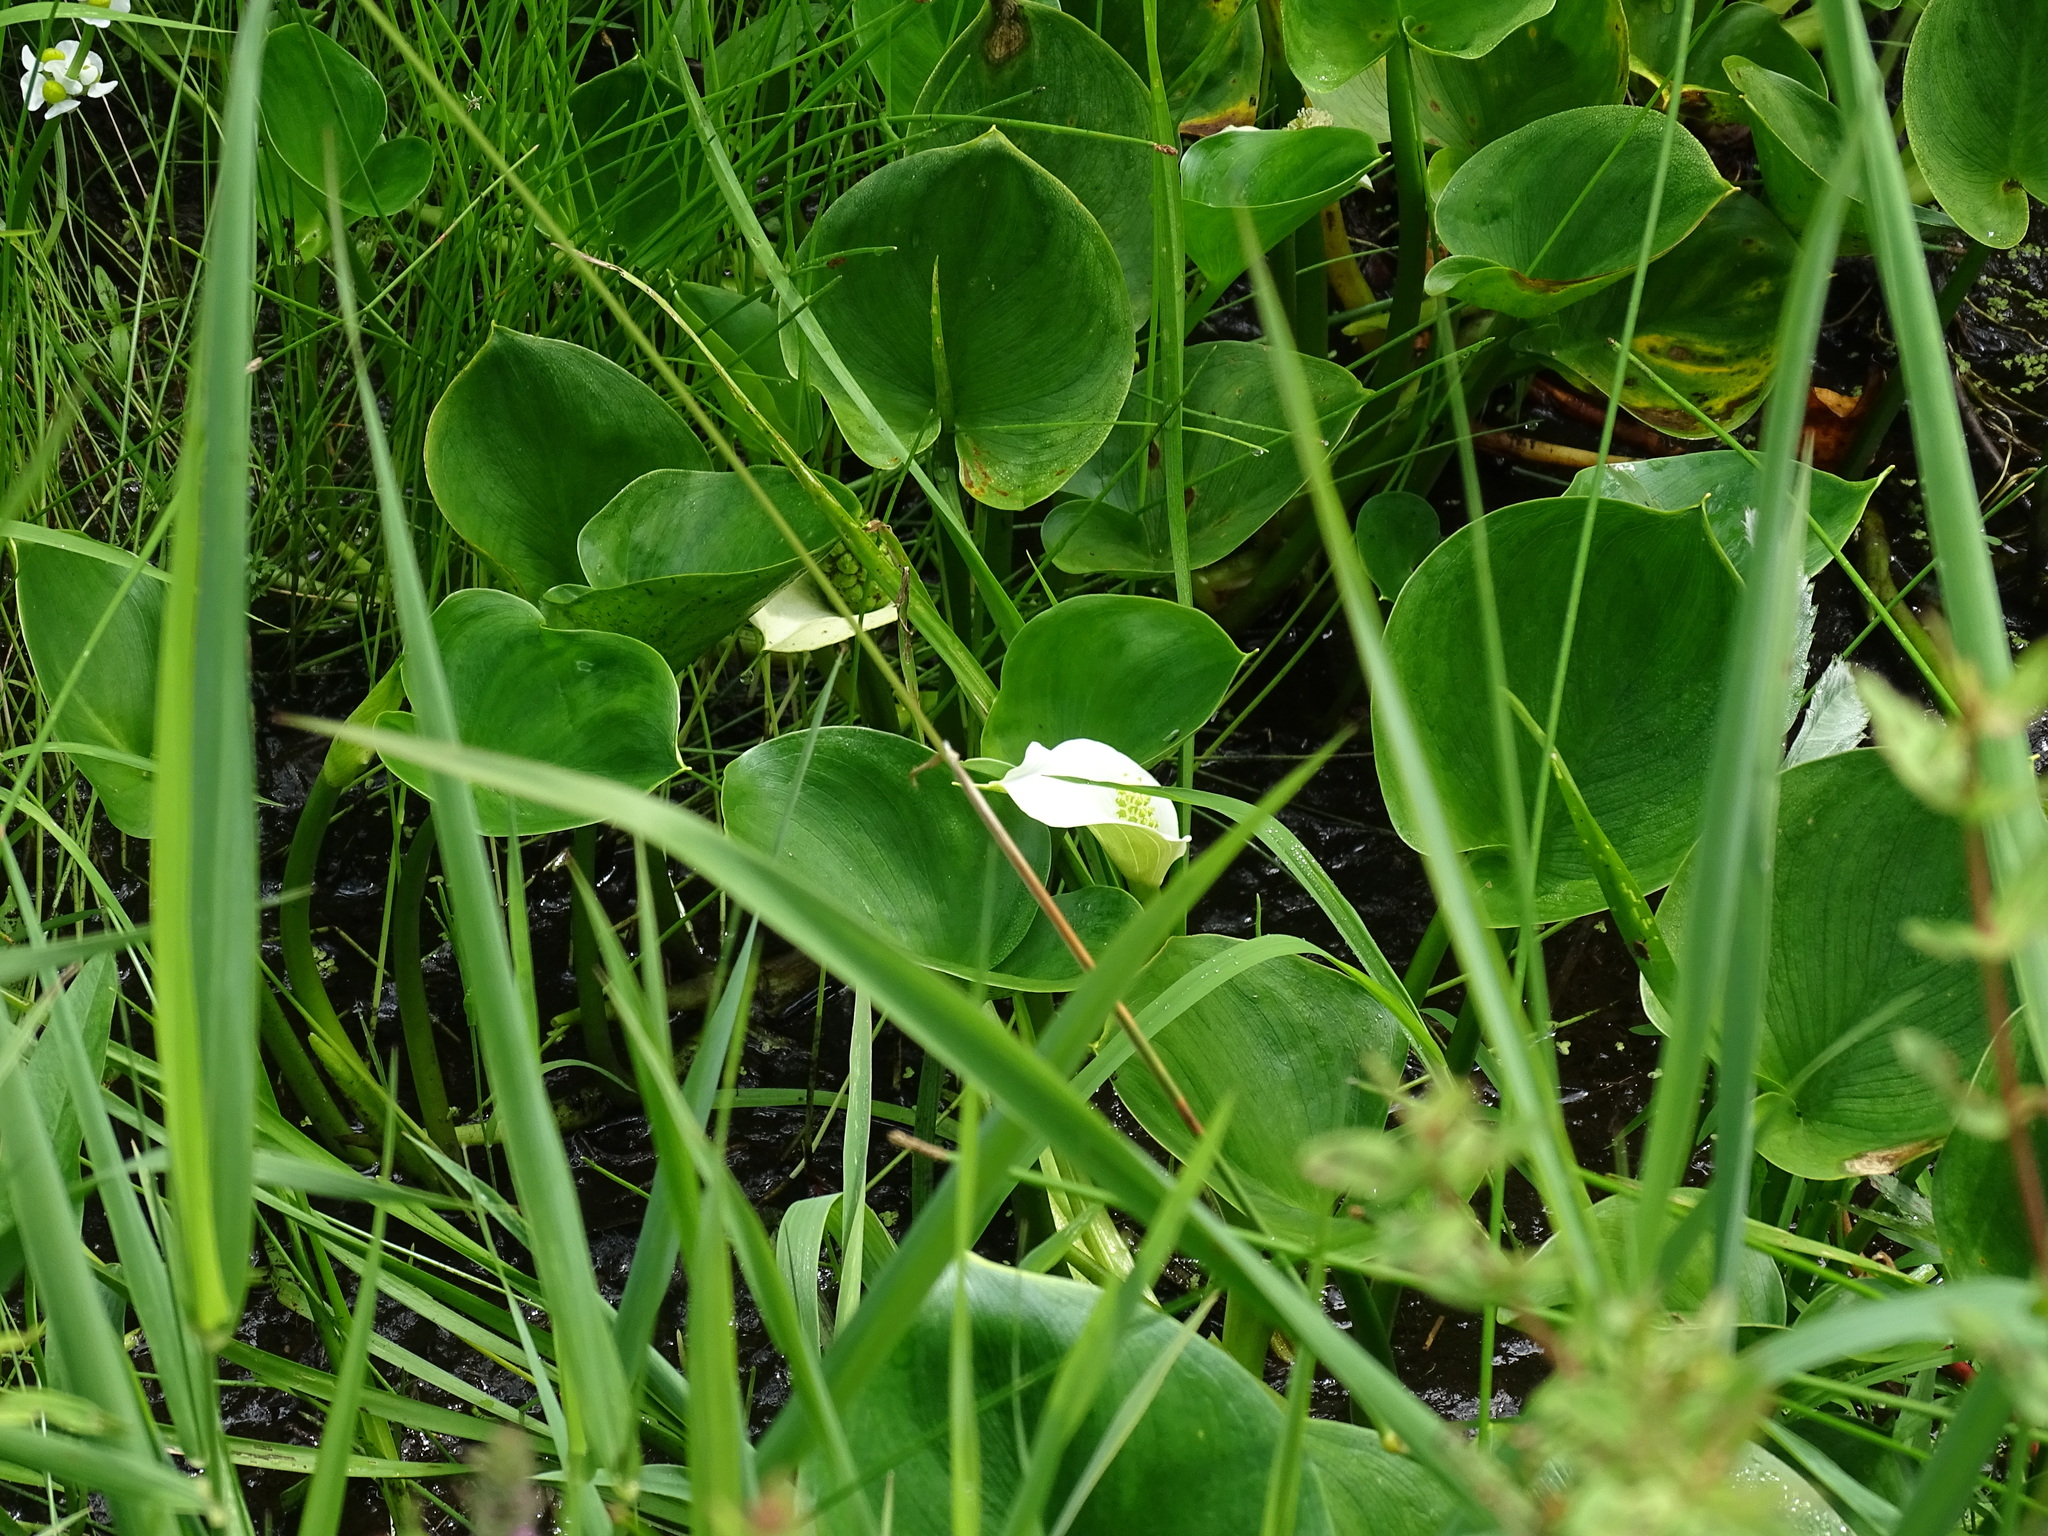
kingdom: Plantae
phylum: Tracheophyta
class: Liliopsida
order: Alismatales
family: Araceae
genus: Calla
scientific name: Calla palustris
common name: Bog arum
